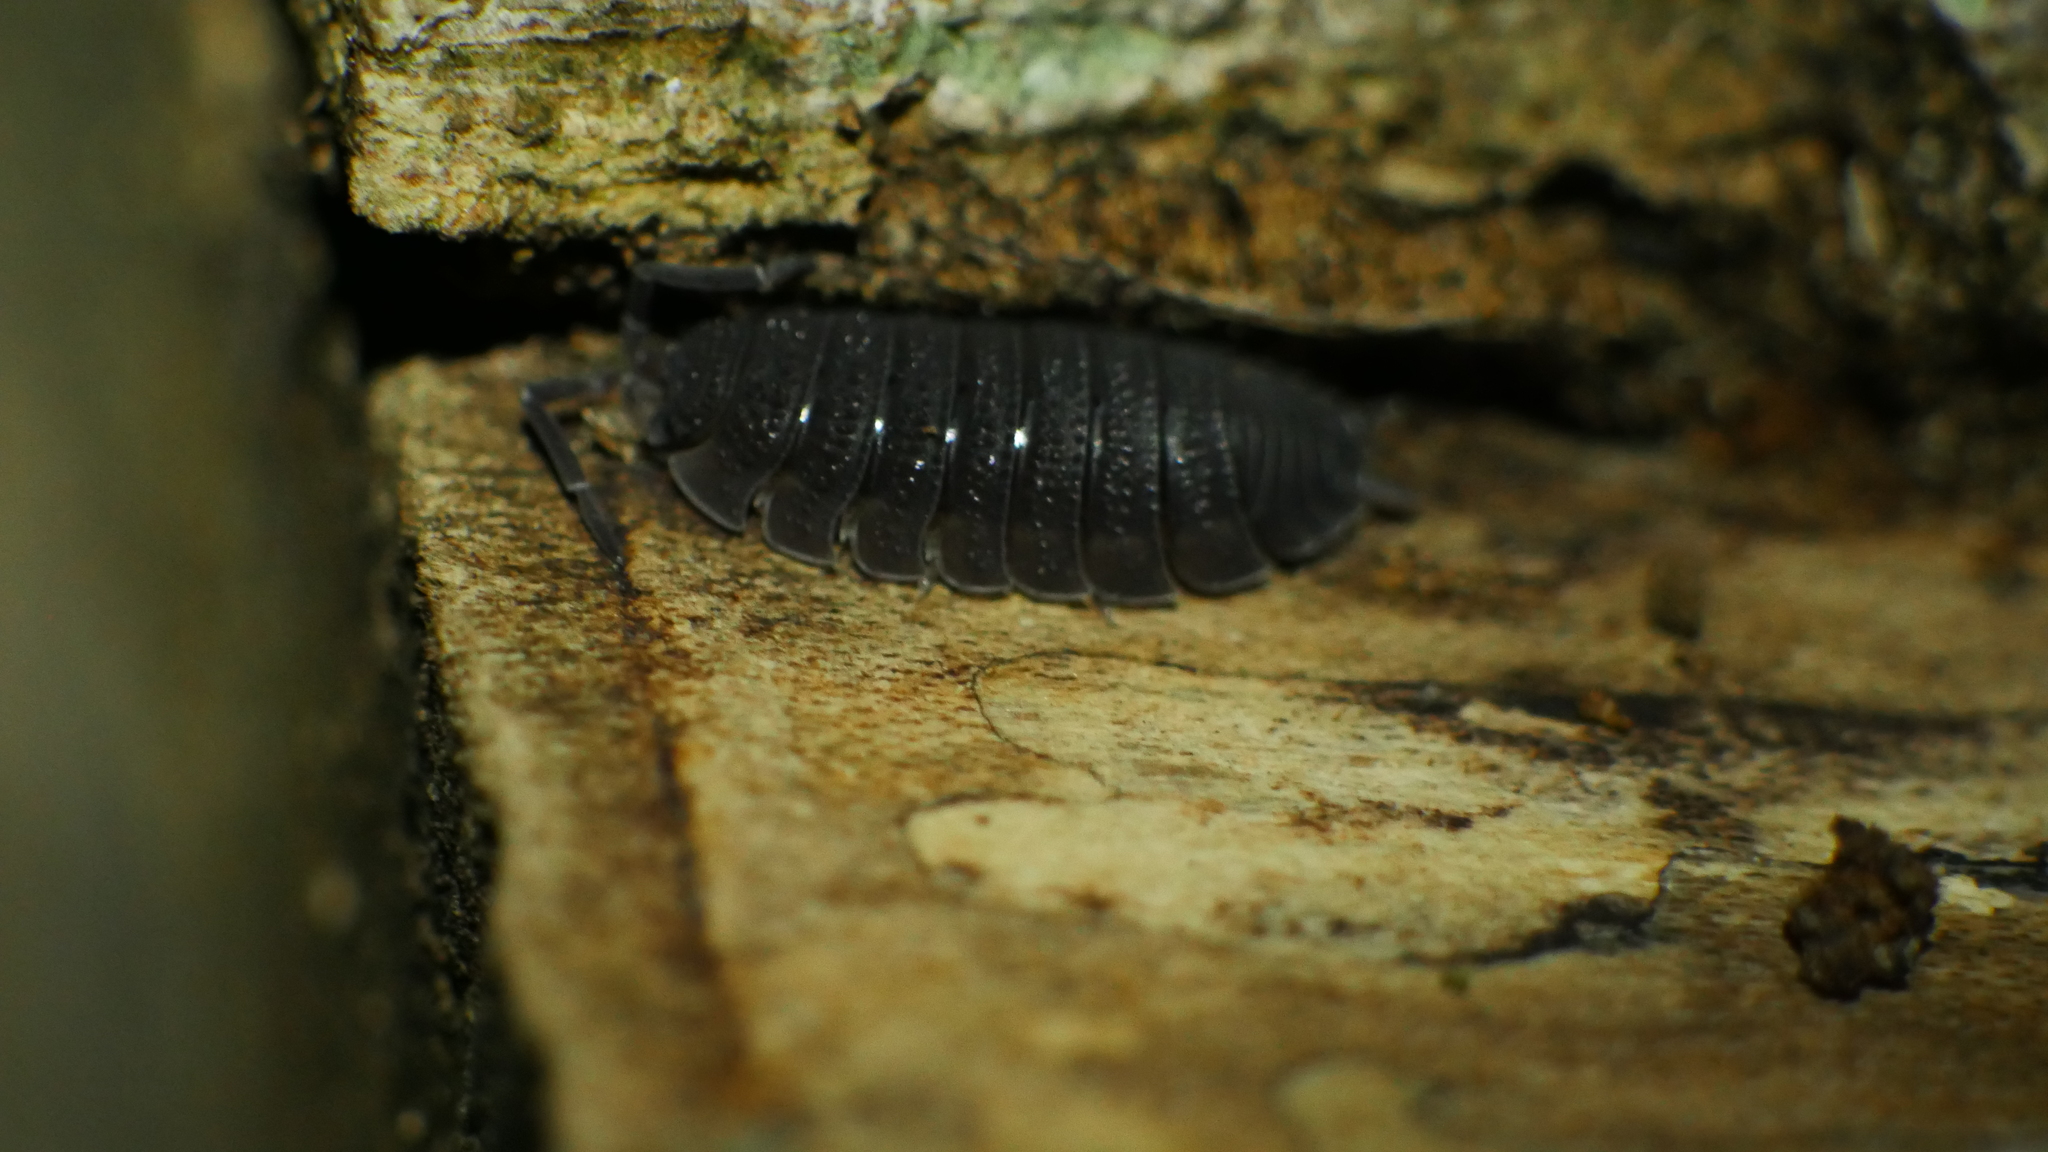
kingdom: Animalia
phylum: Arthropoda
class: Malacostraca
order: Isopoda
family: Porcellionidae
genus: Porcellio
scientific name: Porcellio scaber
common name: Common rough woodlouse
